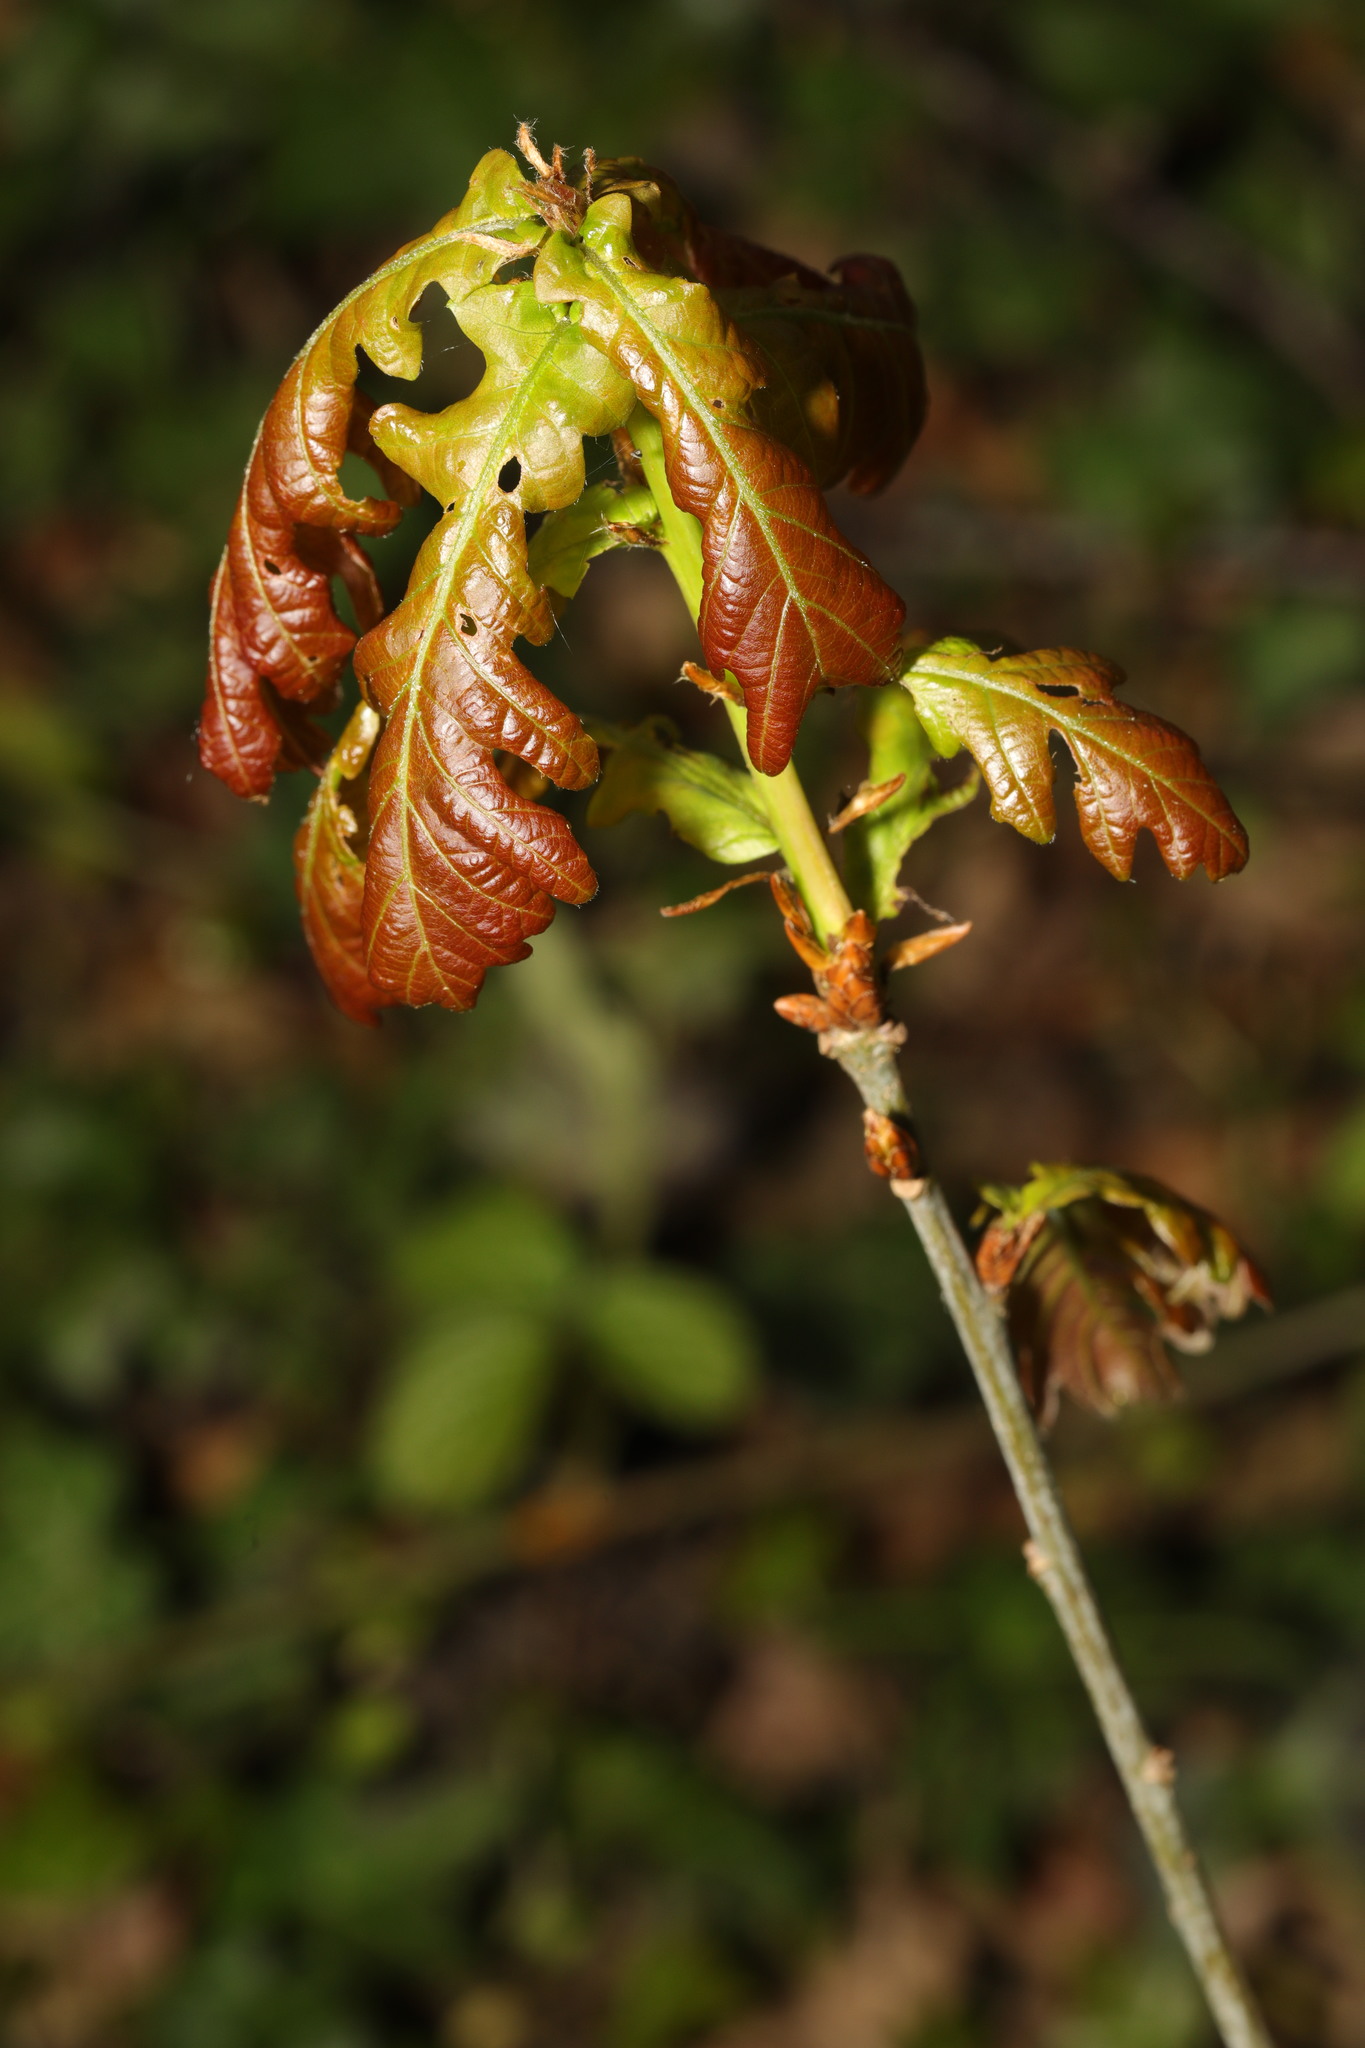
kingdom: Plantae
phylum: Tracheophyta
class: Magnoliopsida
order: Fagales
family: Fagaceae
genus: Quercus
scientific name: Quercus robur
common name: Pedunculate oak
